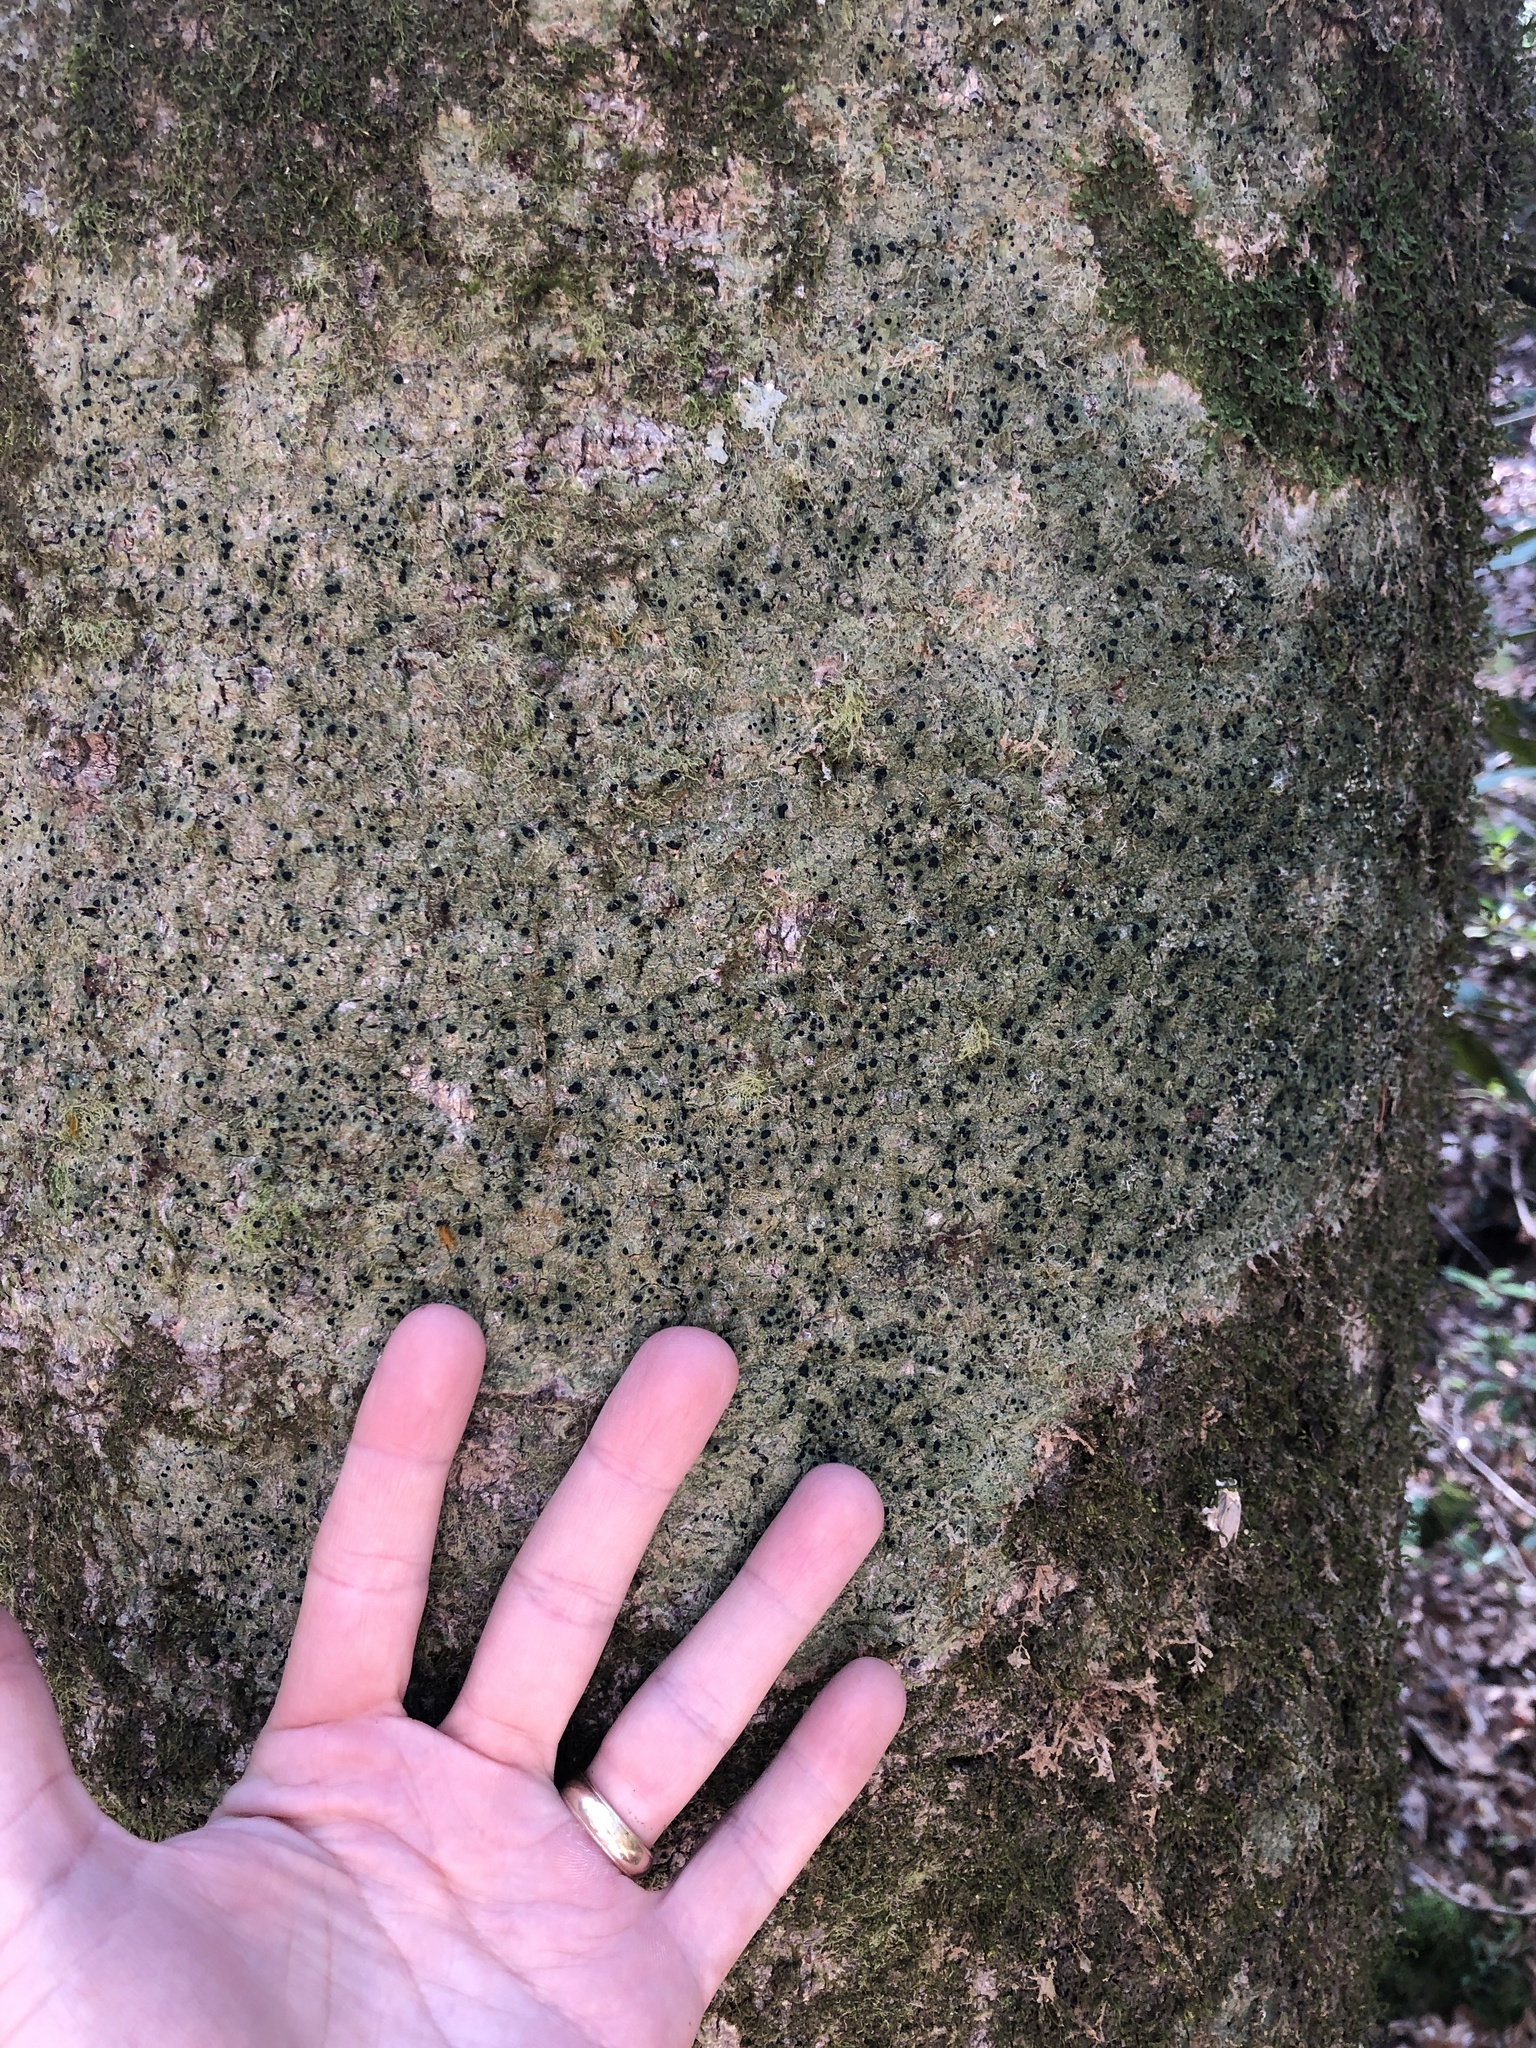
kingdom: Fungi
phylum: Ascomycota
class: Lecanoromycetes
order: Lecanorales
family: Ramalinaceae
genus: Bacidia
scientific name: Bacidia schweinitzii
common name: Surprise lichen
